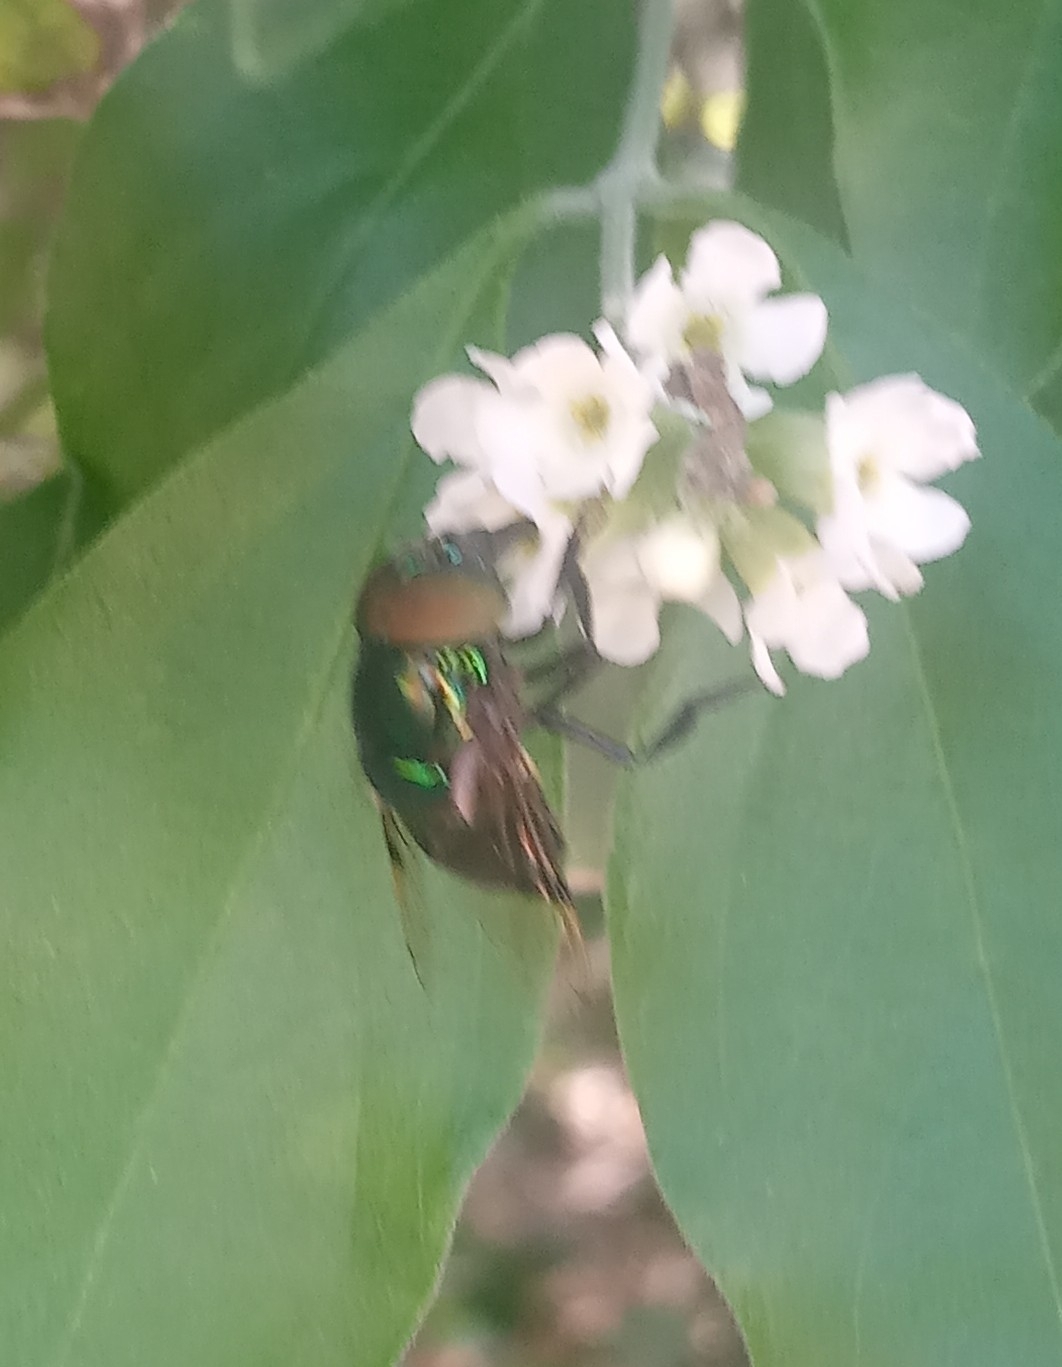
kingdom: Animalia
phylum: Arthropoda
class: Insecta
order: Diptera
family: Syrphidae
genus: Ornidia
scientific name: Ornidia obesa
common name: Syrphid fly
